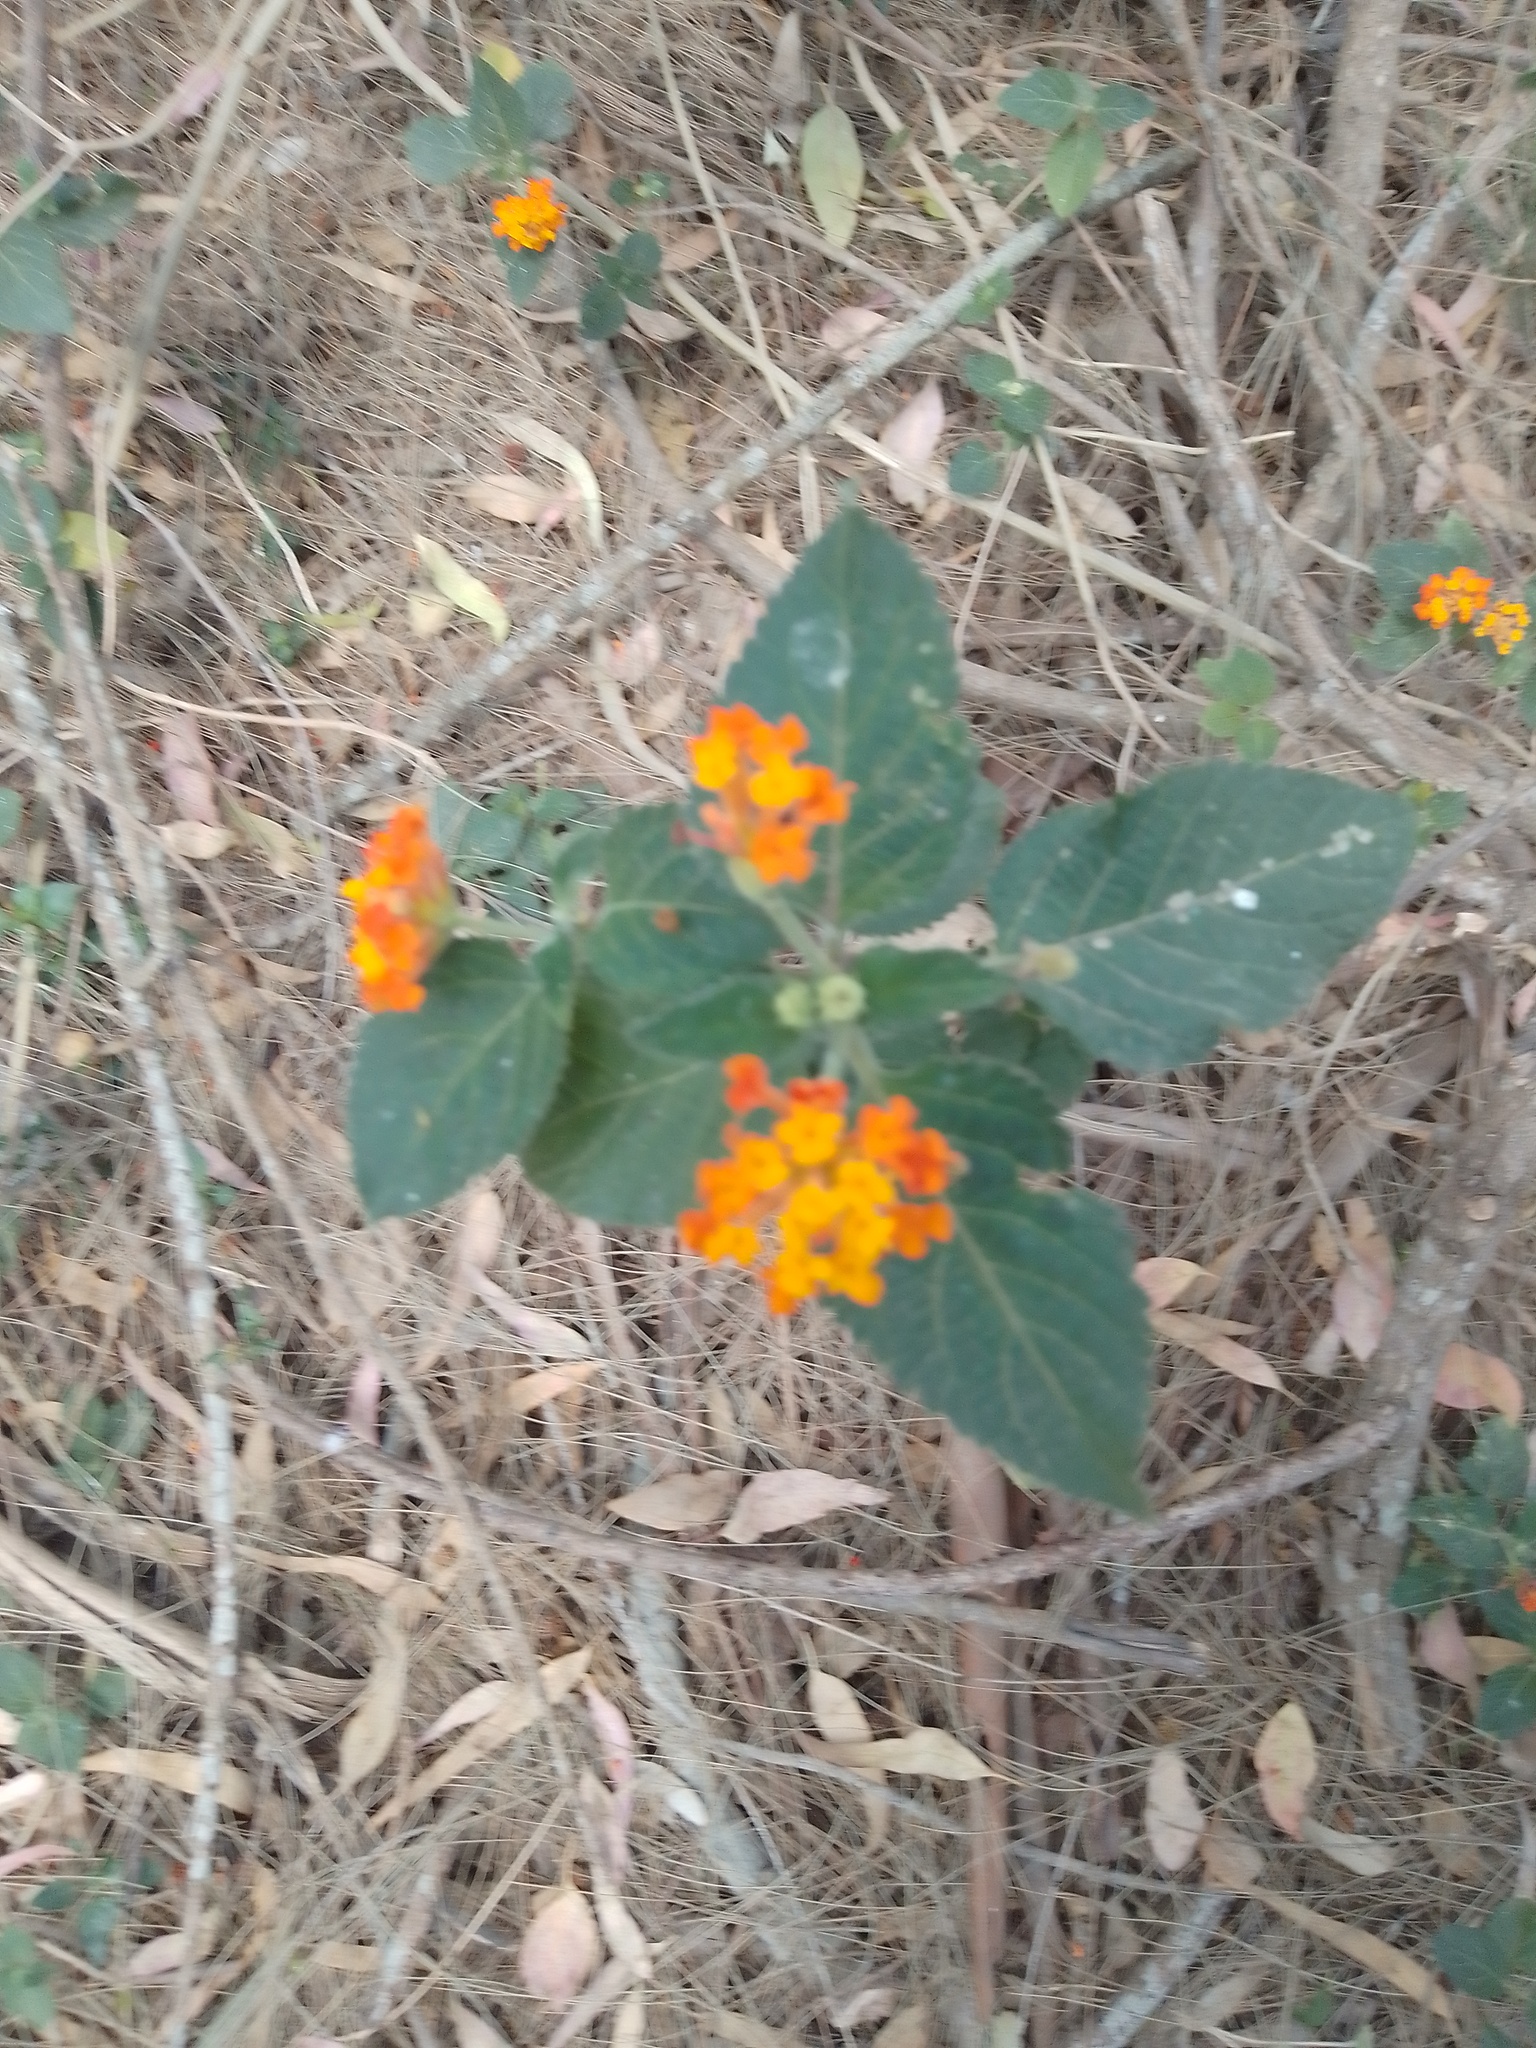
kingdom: Plantae
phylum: Tracheophyta
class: Magnoliopsida
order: Lamiales
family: Verbenaceae
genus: Lantana
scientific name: Lantana camara
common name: Lantana
